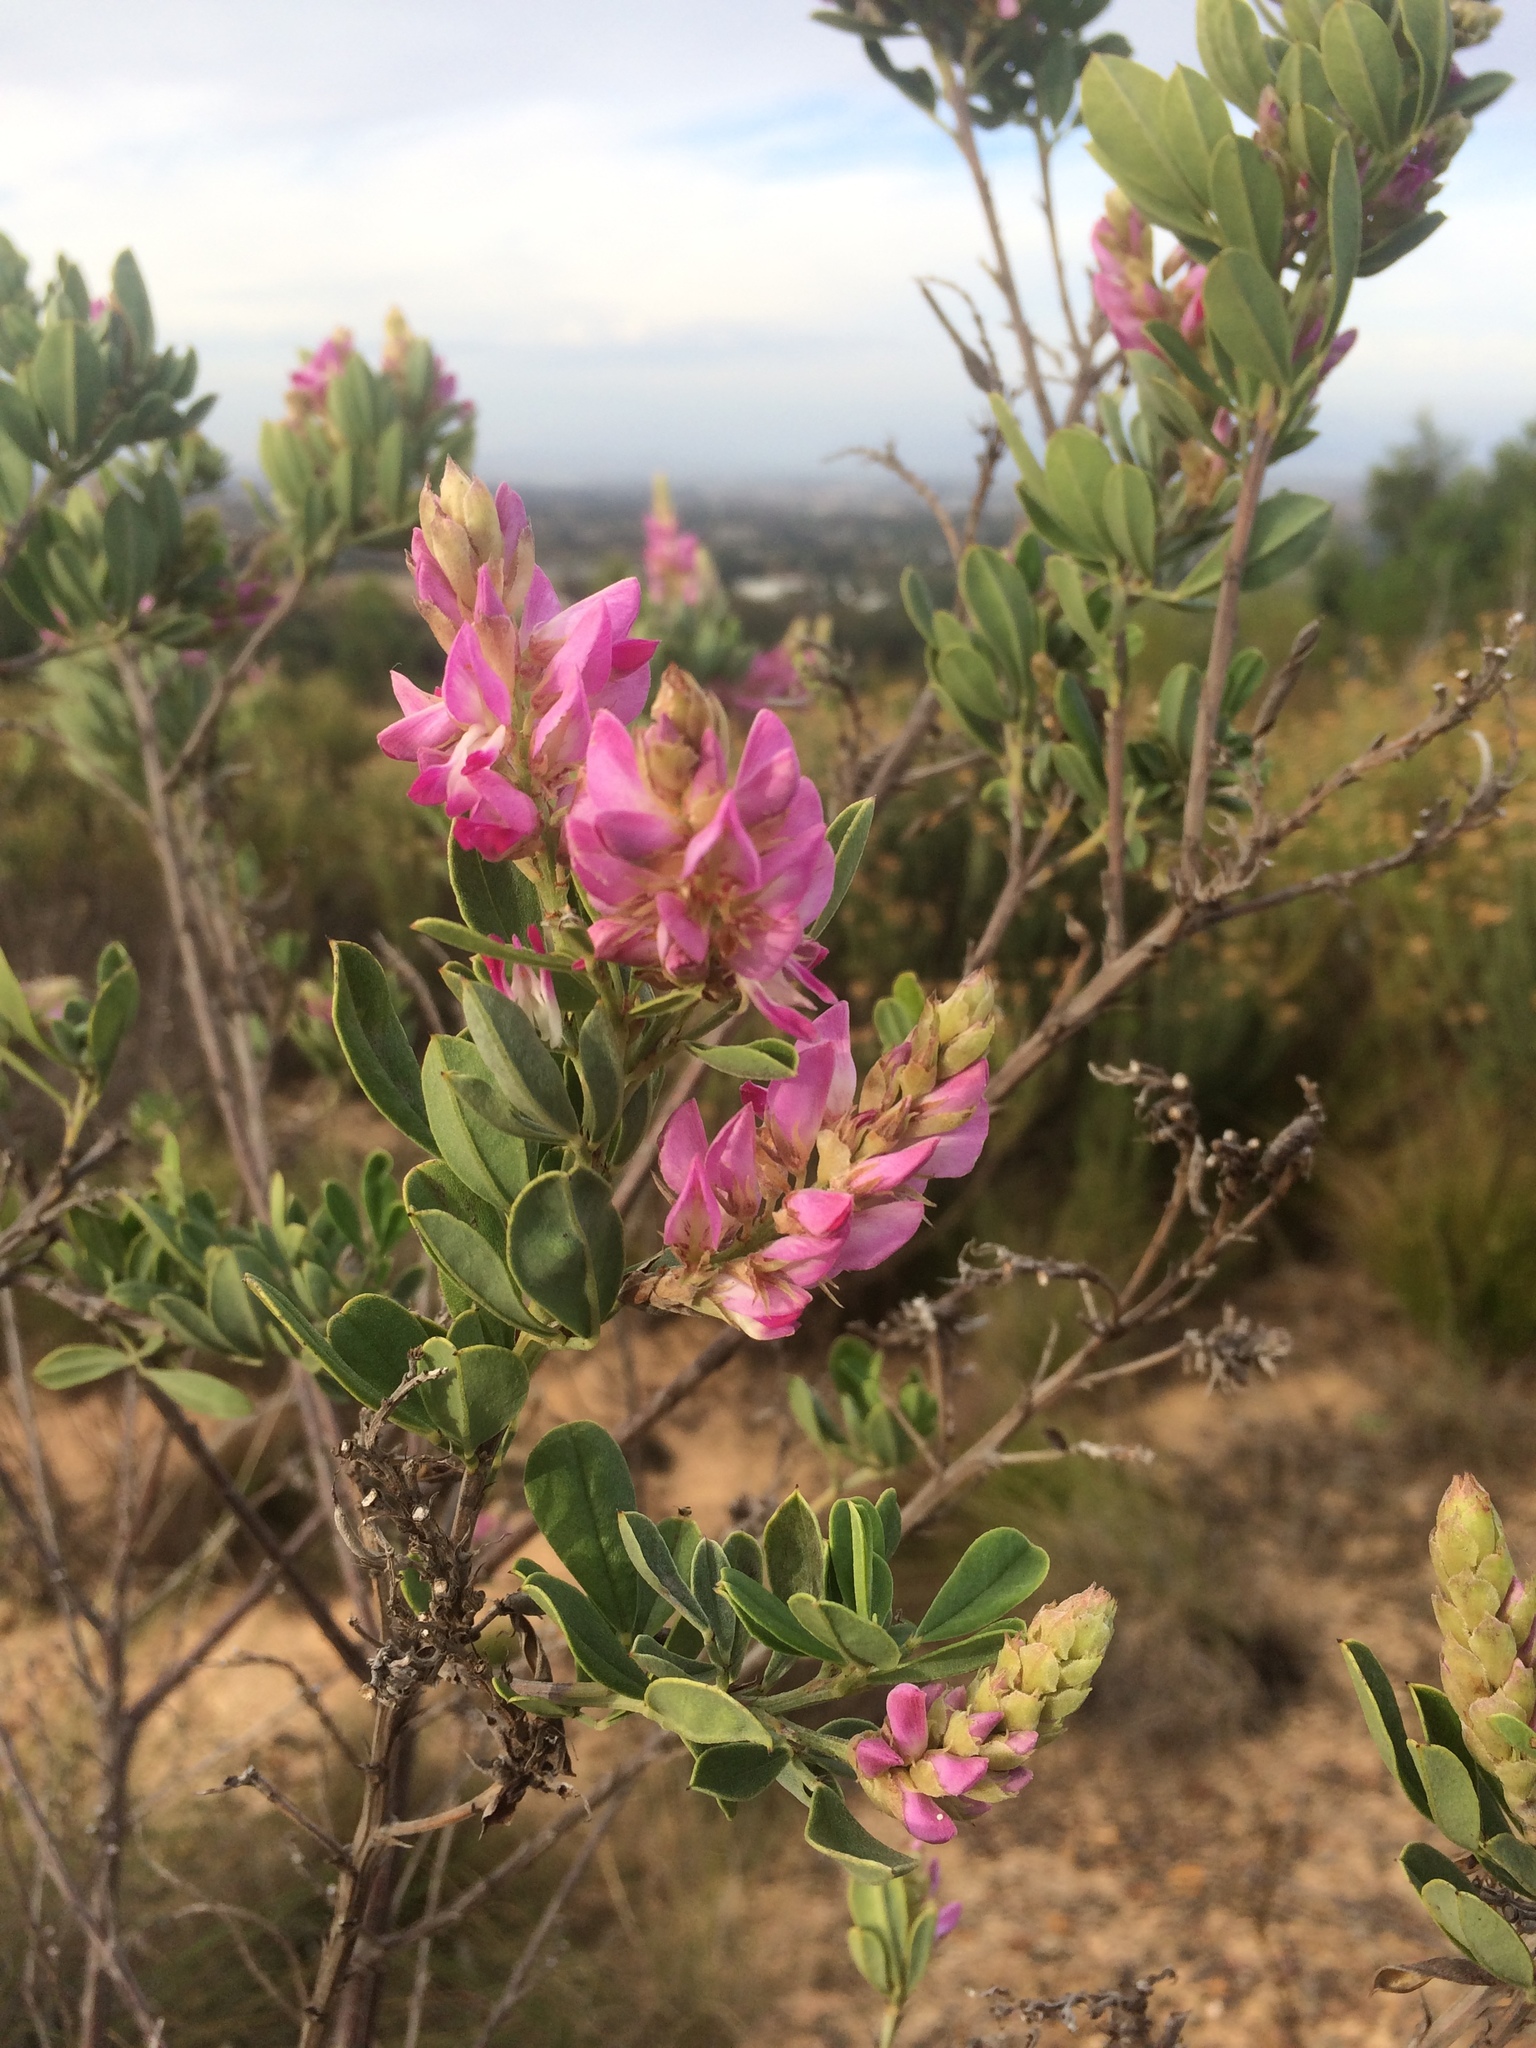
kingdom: Plantae
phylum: Tracheophyta
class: Magnoliopsida
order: Fabales
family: Fabaceae
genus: Indigofera
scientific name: Indigofera cytisoides
